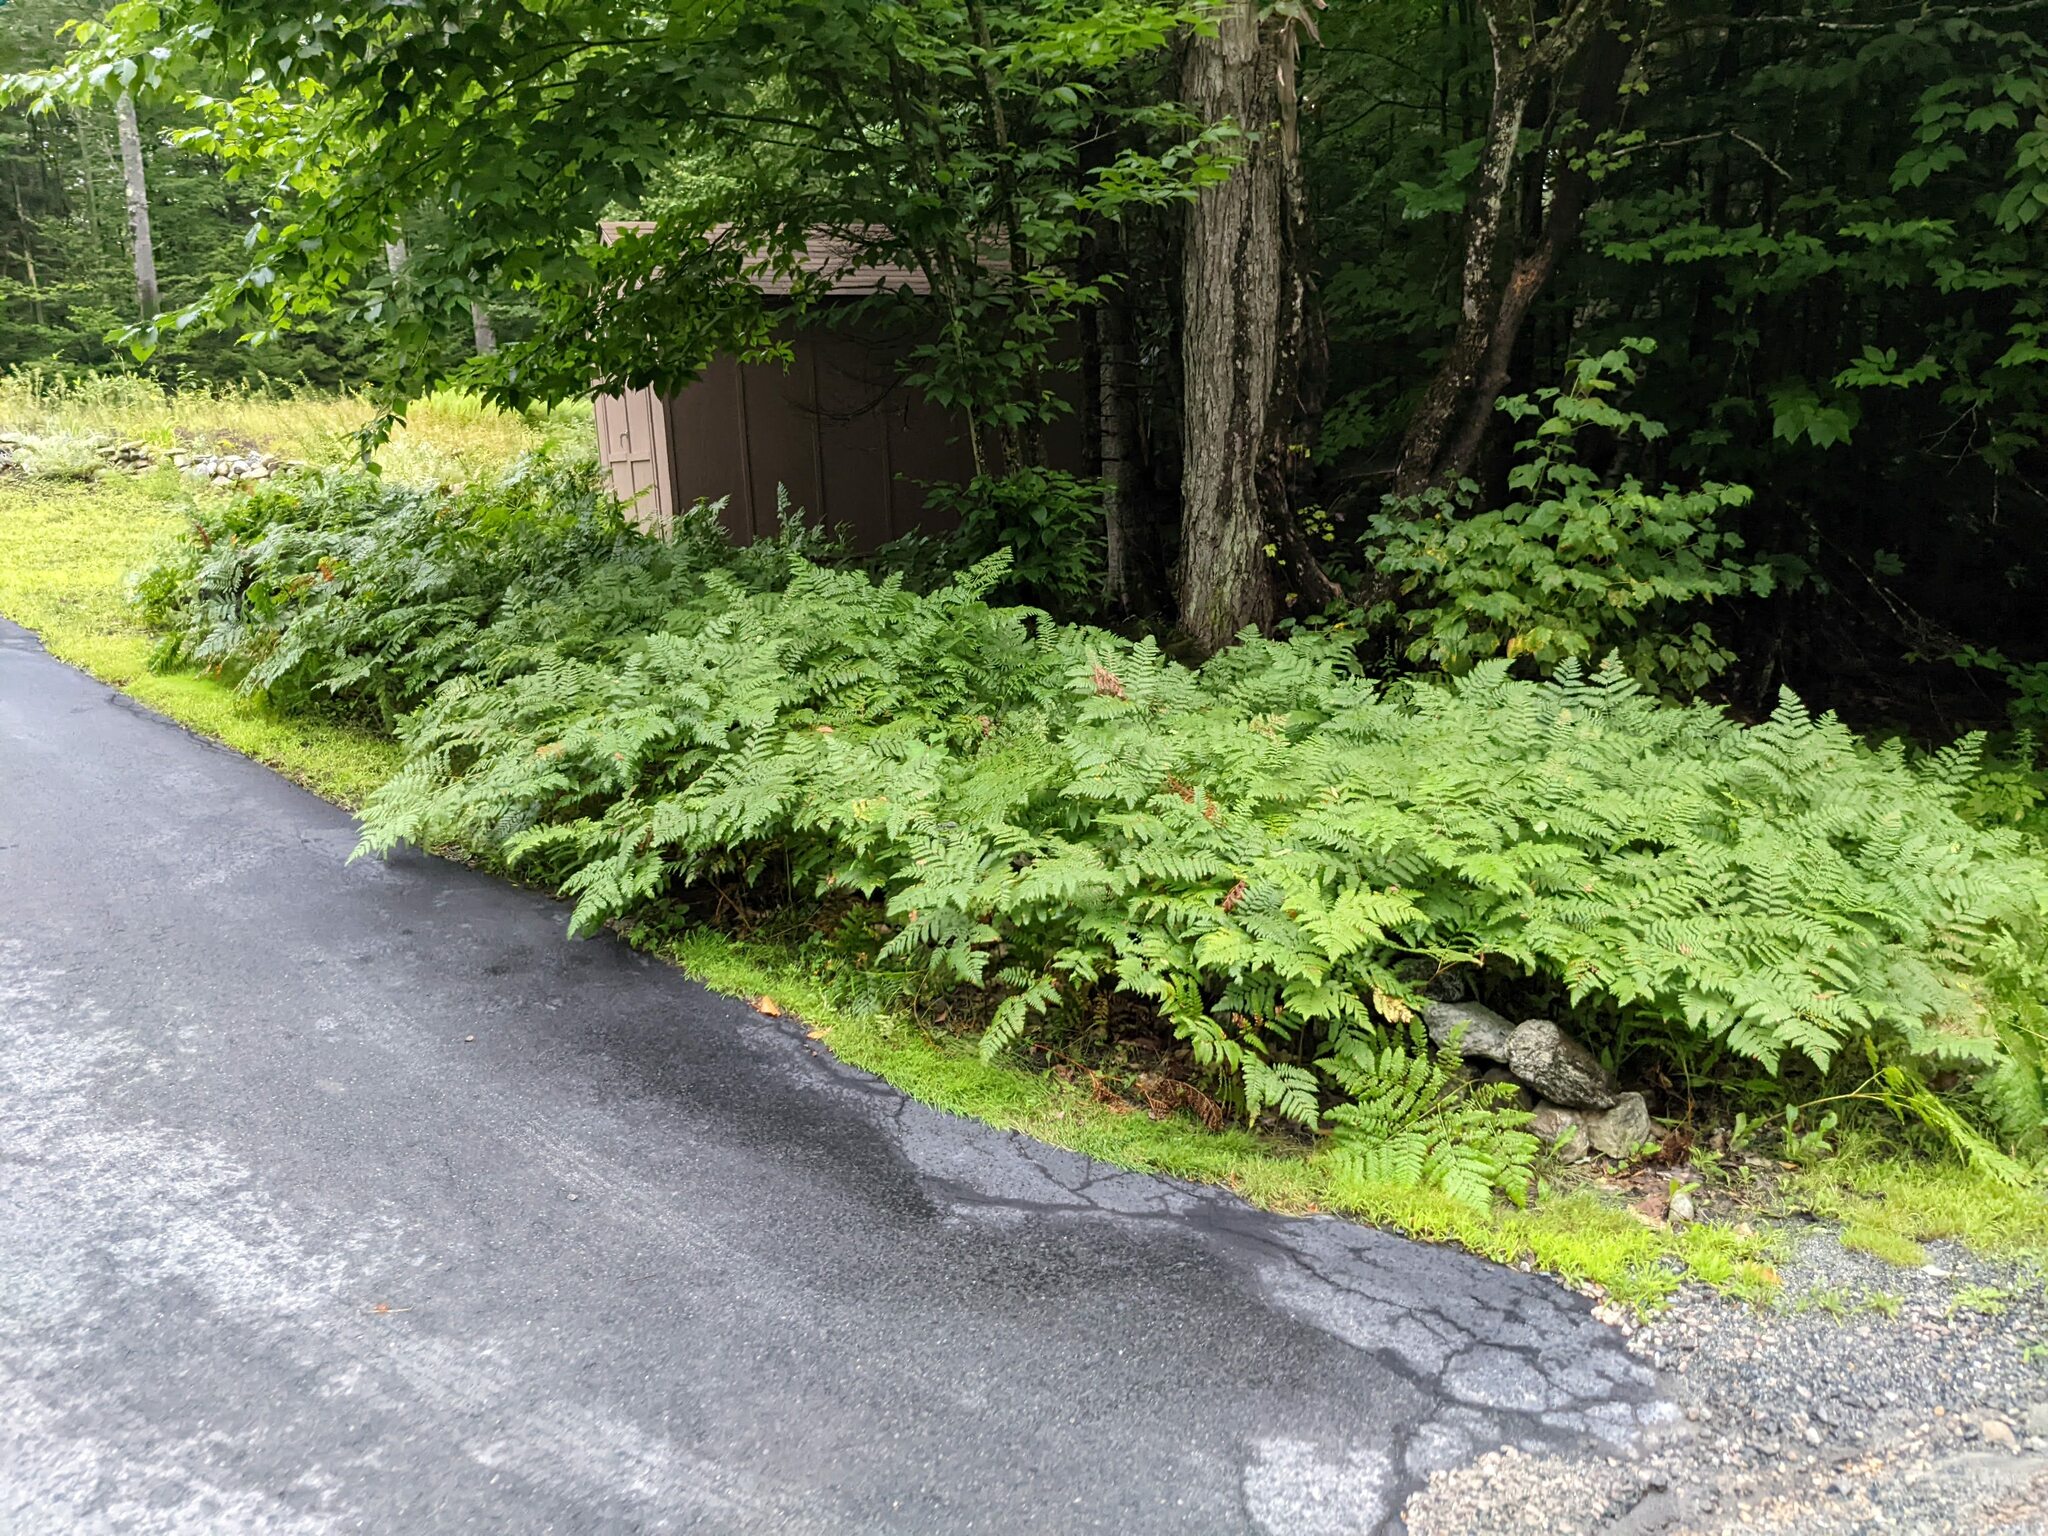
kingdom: Plantae
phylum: Tracheophyta
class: Polypodiopsida
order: Polypodiales
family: Dennstaedtiaceae
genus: Pteridium
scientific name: Pteridium aquilinum
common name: Bracken
